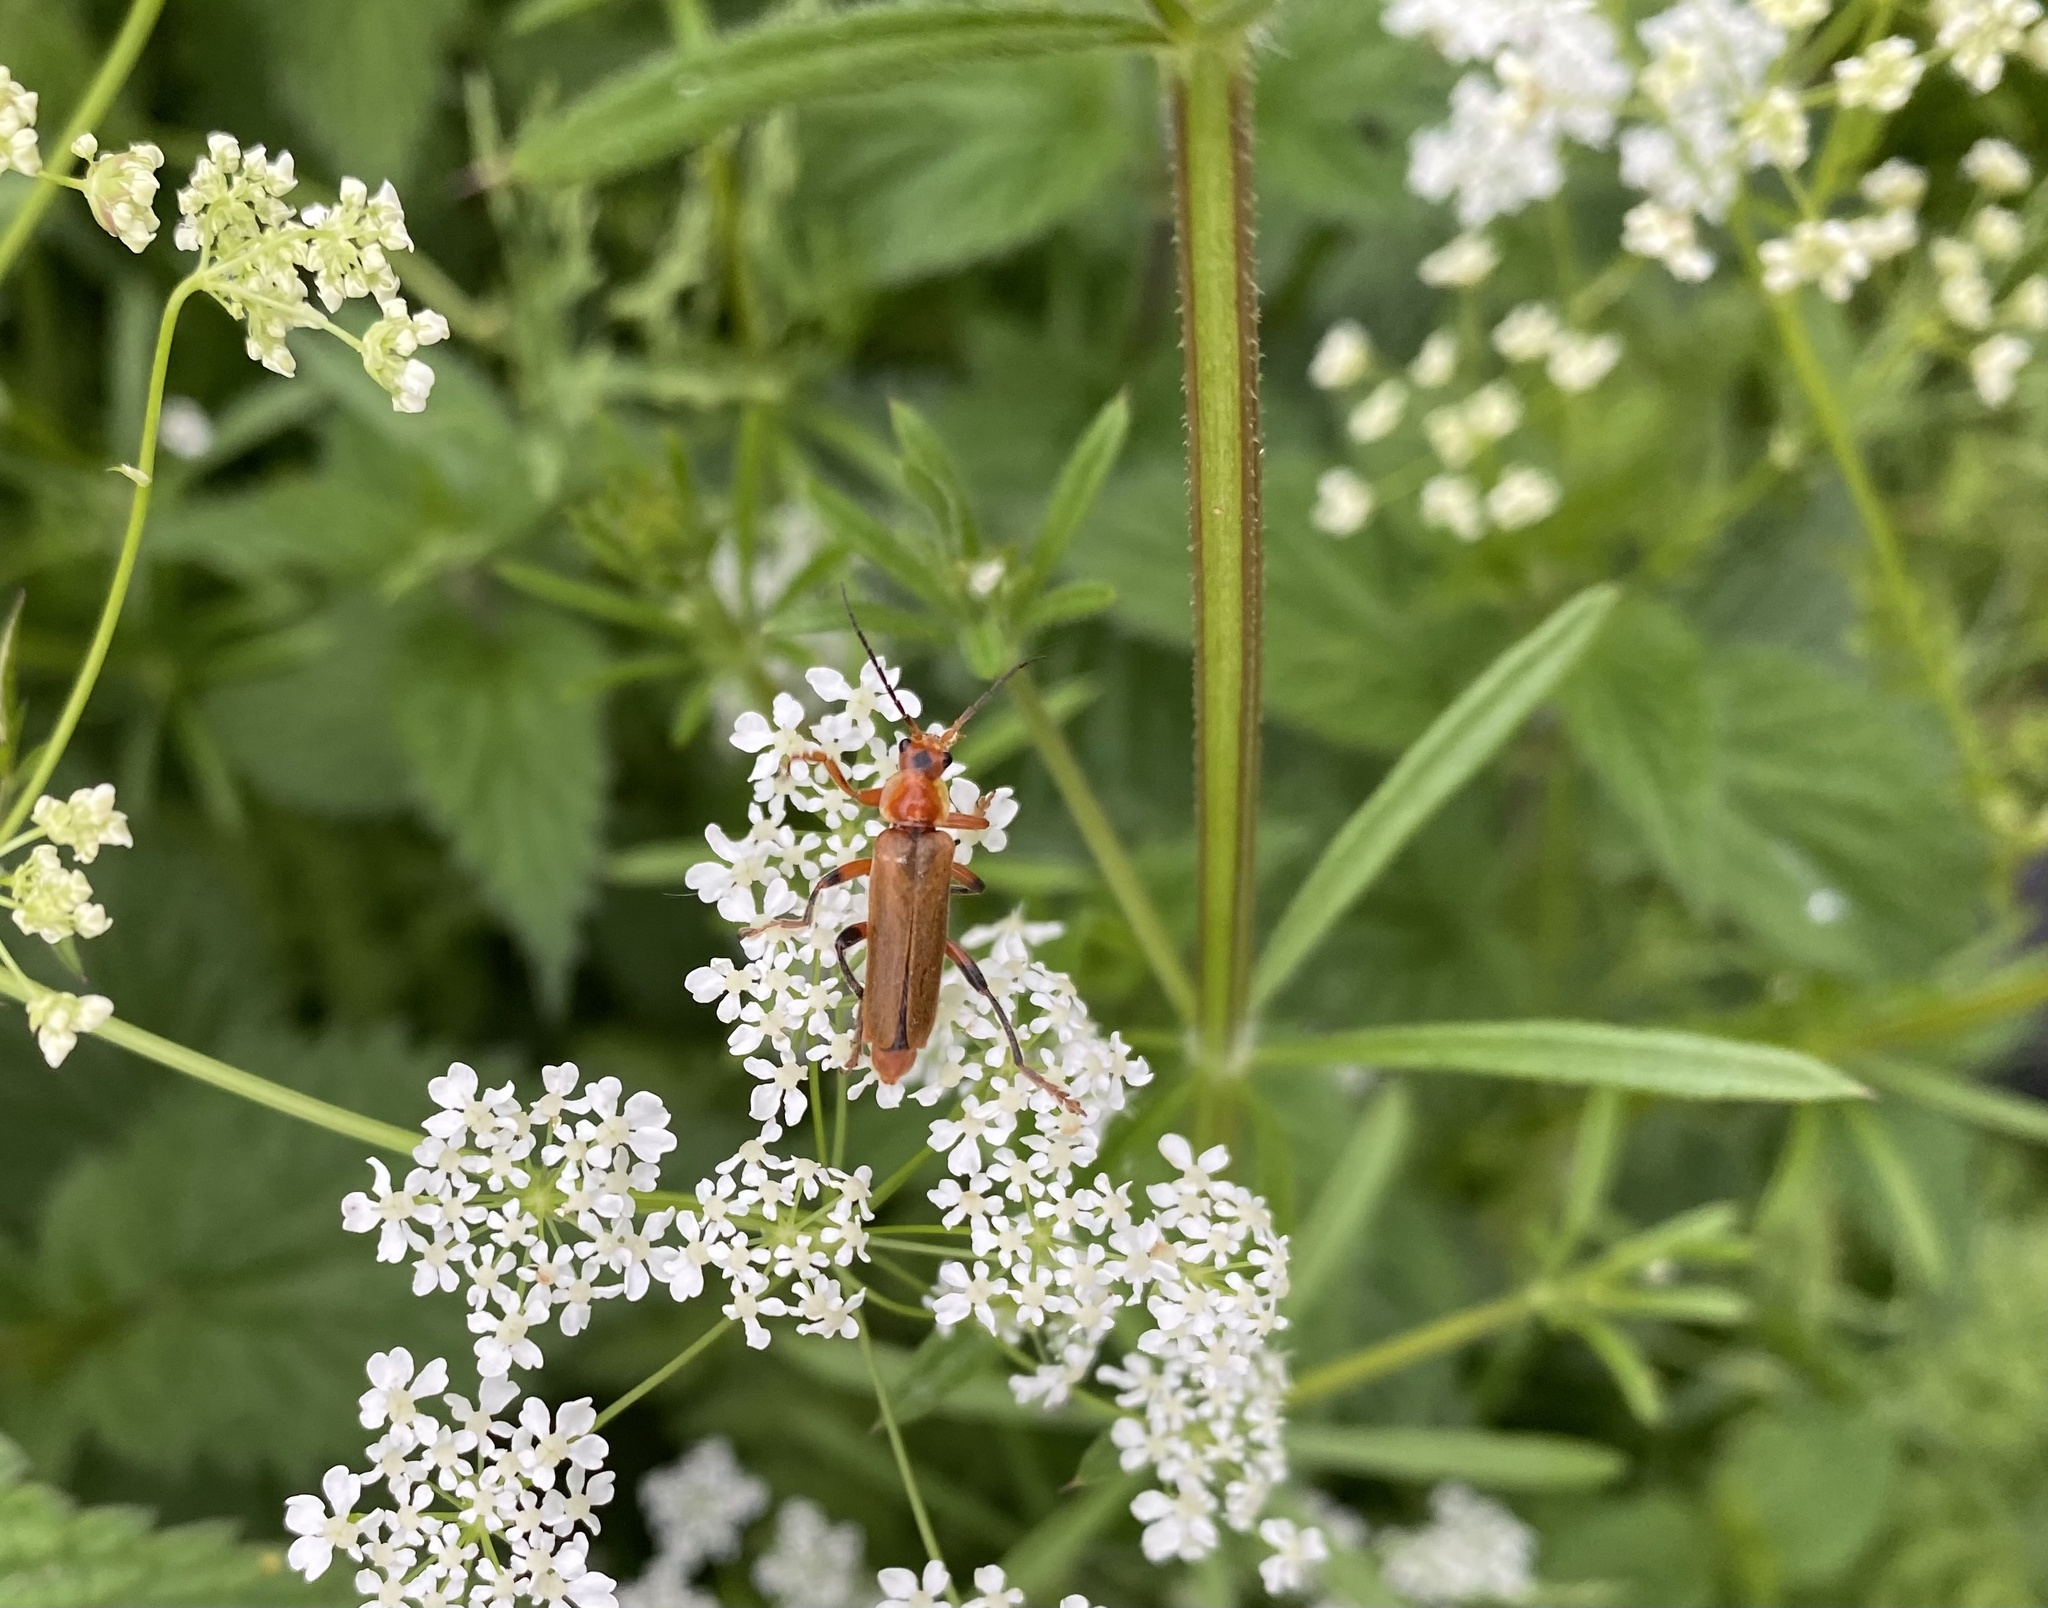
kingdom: Animalia
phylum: Arthropoda
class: Insecta
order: Coleoptera
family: Cantharidae
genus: Cantharis
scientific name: Cantharis livida
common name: Livid soldier beetle
